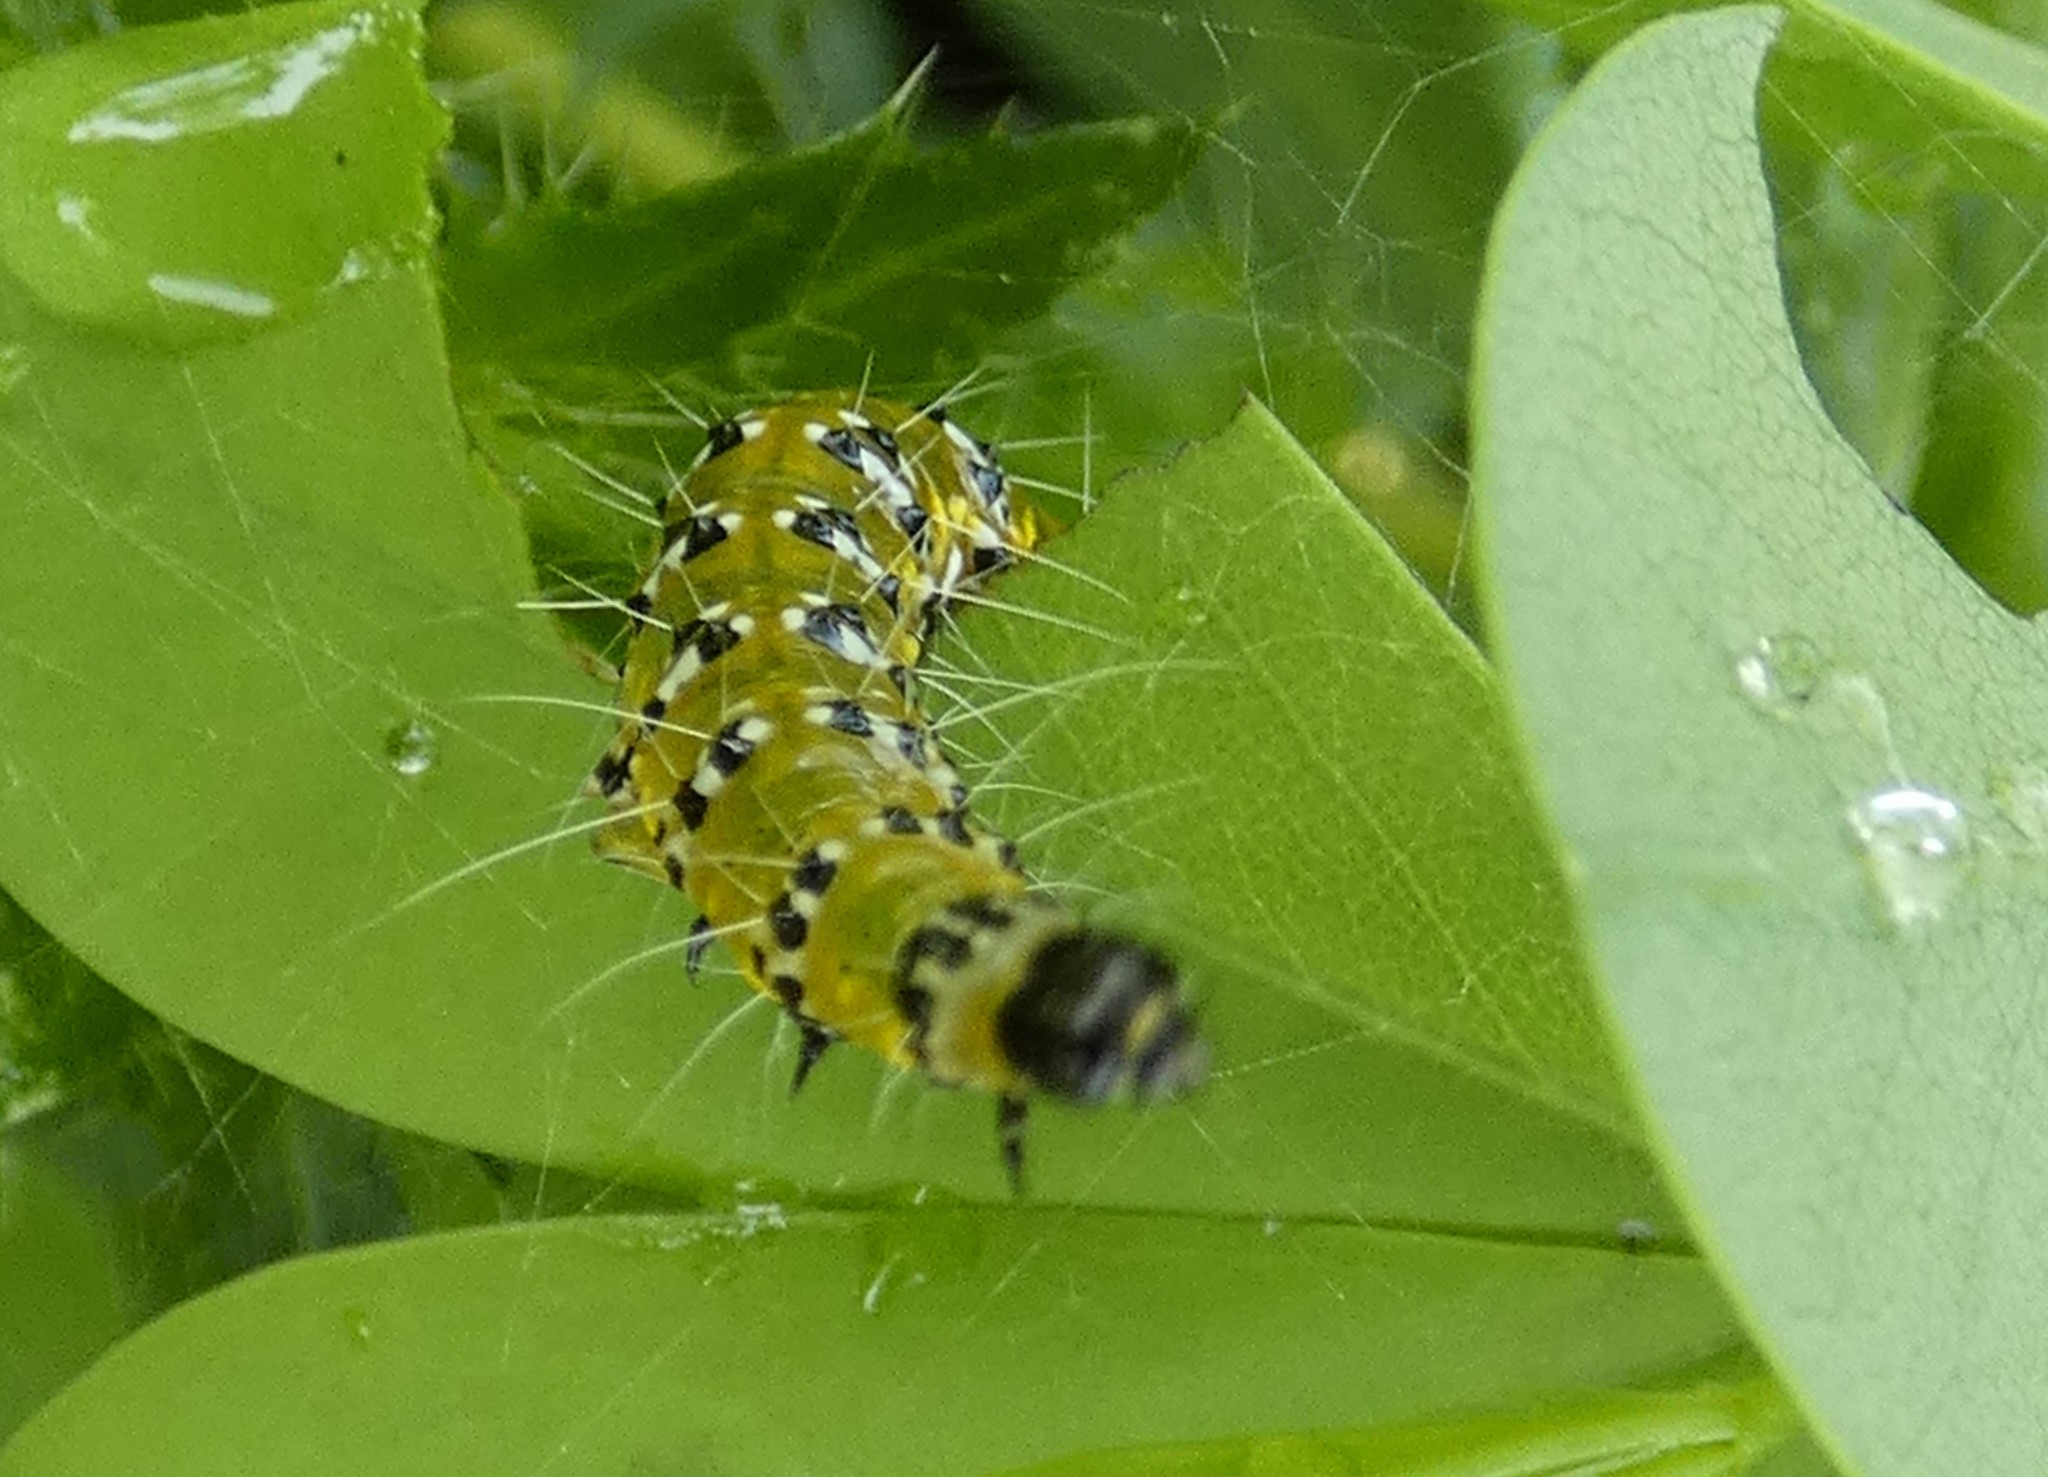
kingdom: Animalia
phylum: Arthropoda
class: Insecta
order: Lepidoptera
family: Crambidae
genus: Uresiphita
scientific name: Uresiphita reversalis
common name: Genista broom moth
